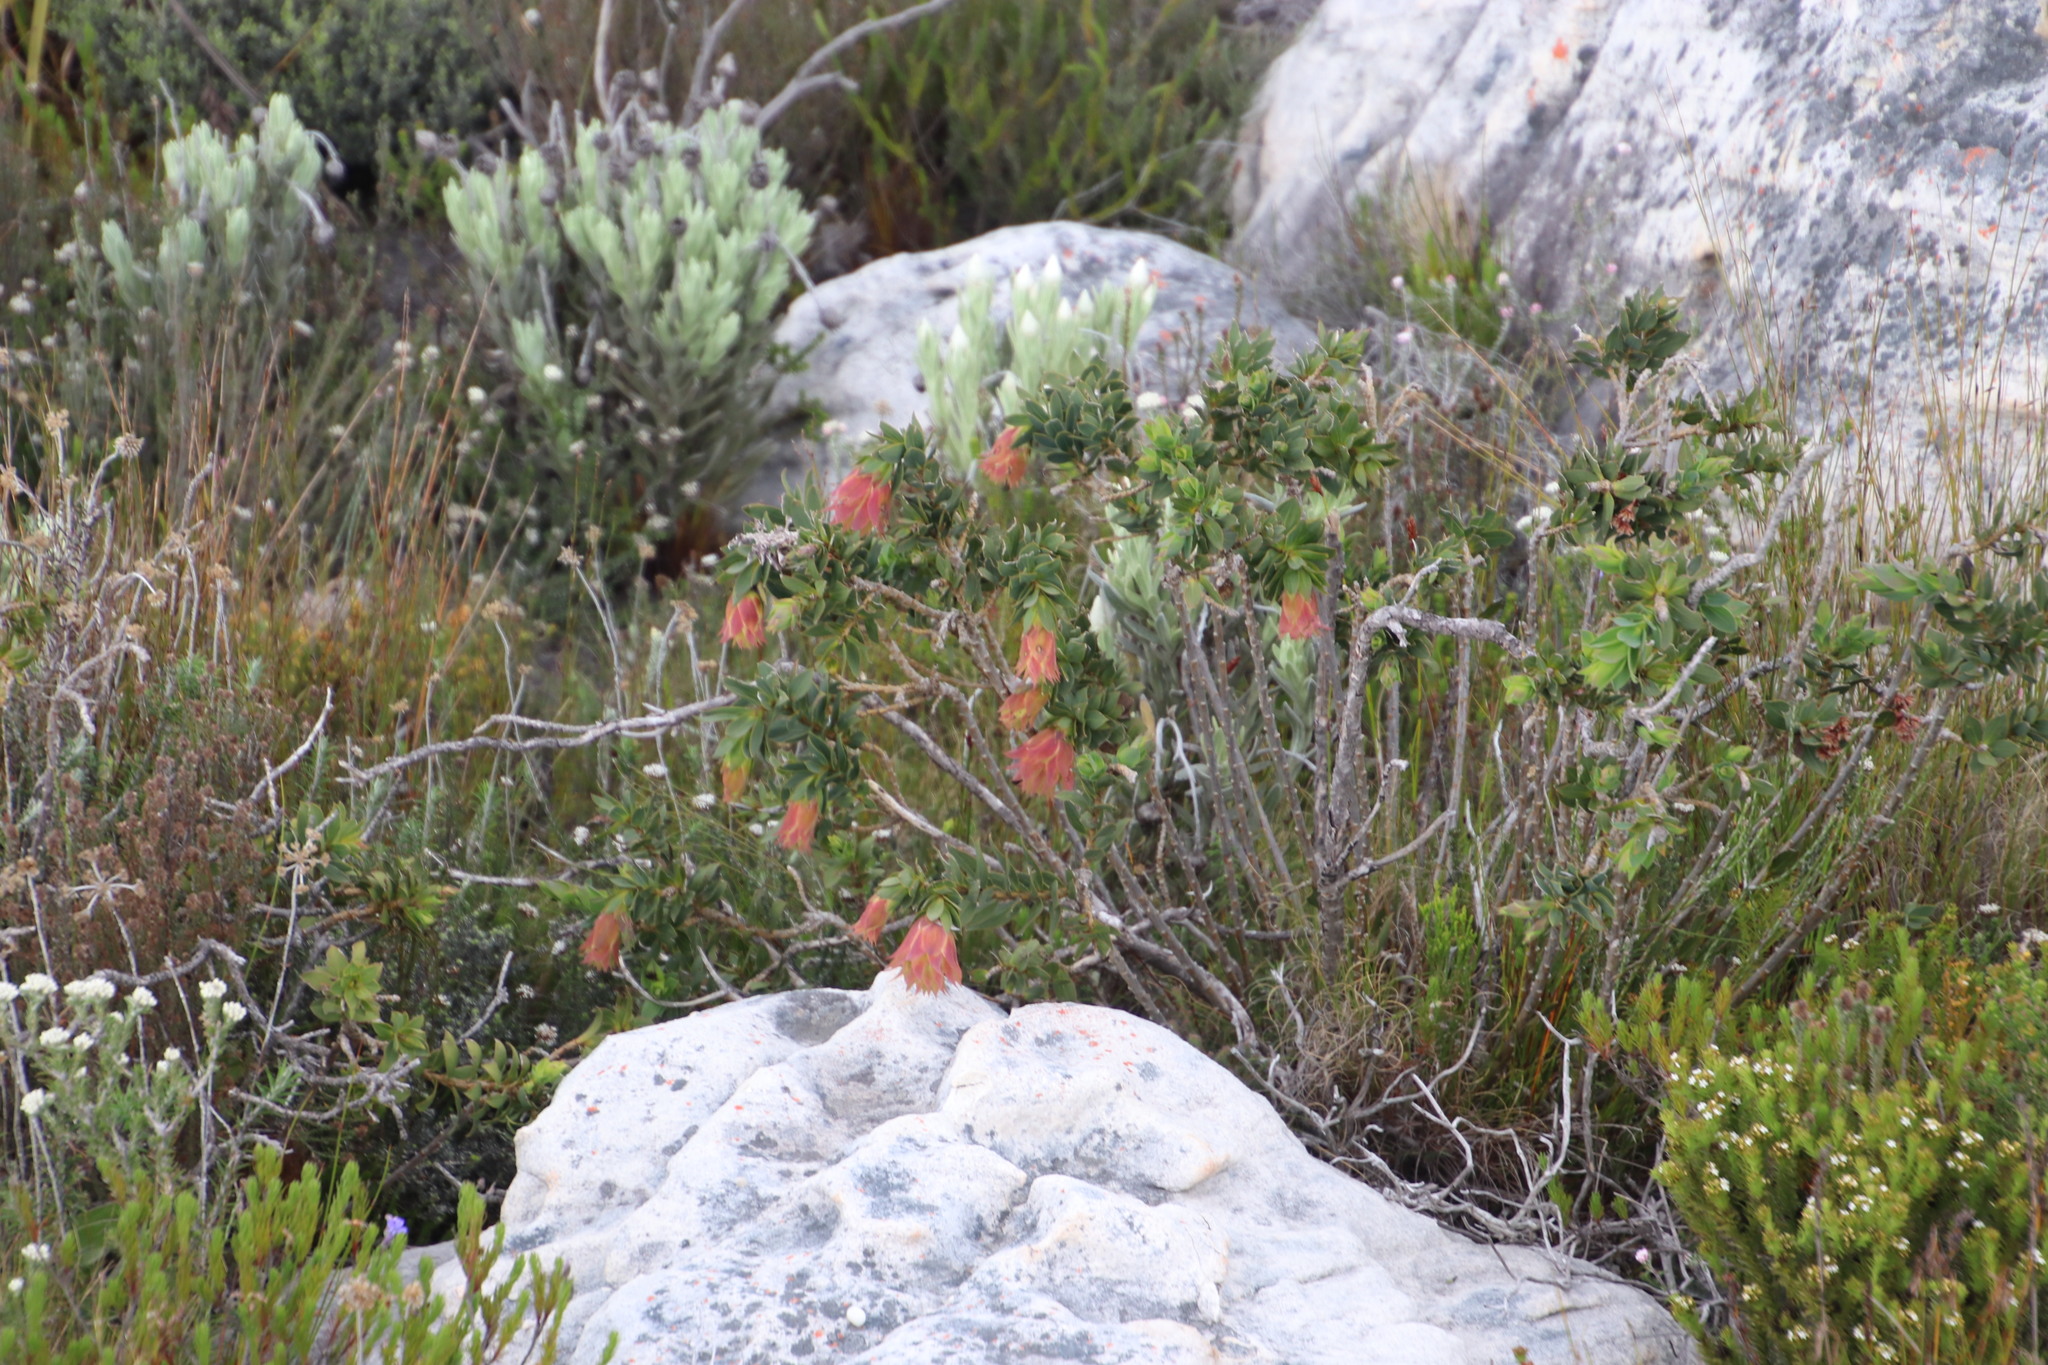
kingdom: Plantae
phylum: Tracheophyta
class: Magnoliopsida
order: Fabales
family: Fabaceae
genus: Liparia
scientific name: Liparia splendens
